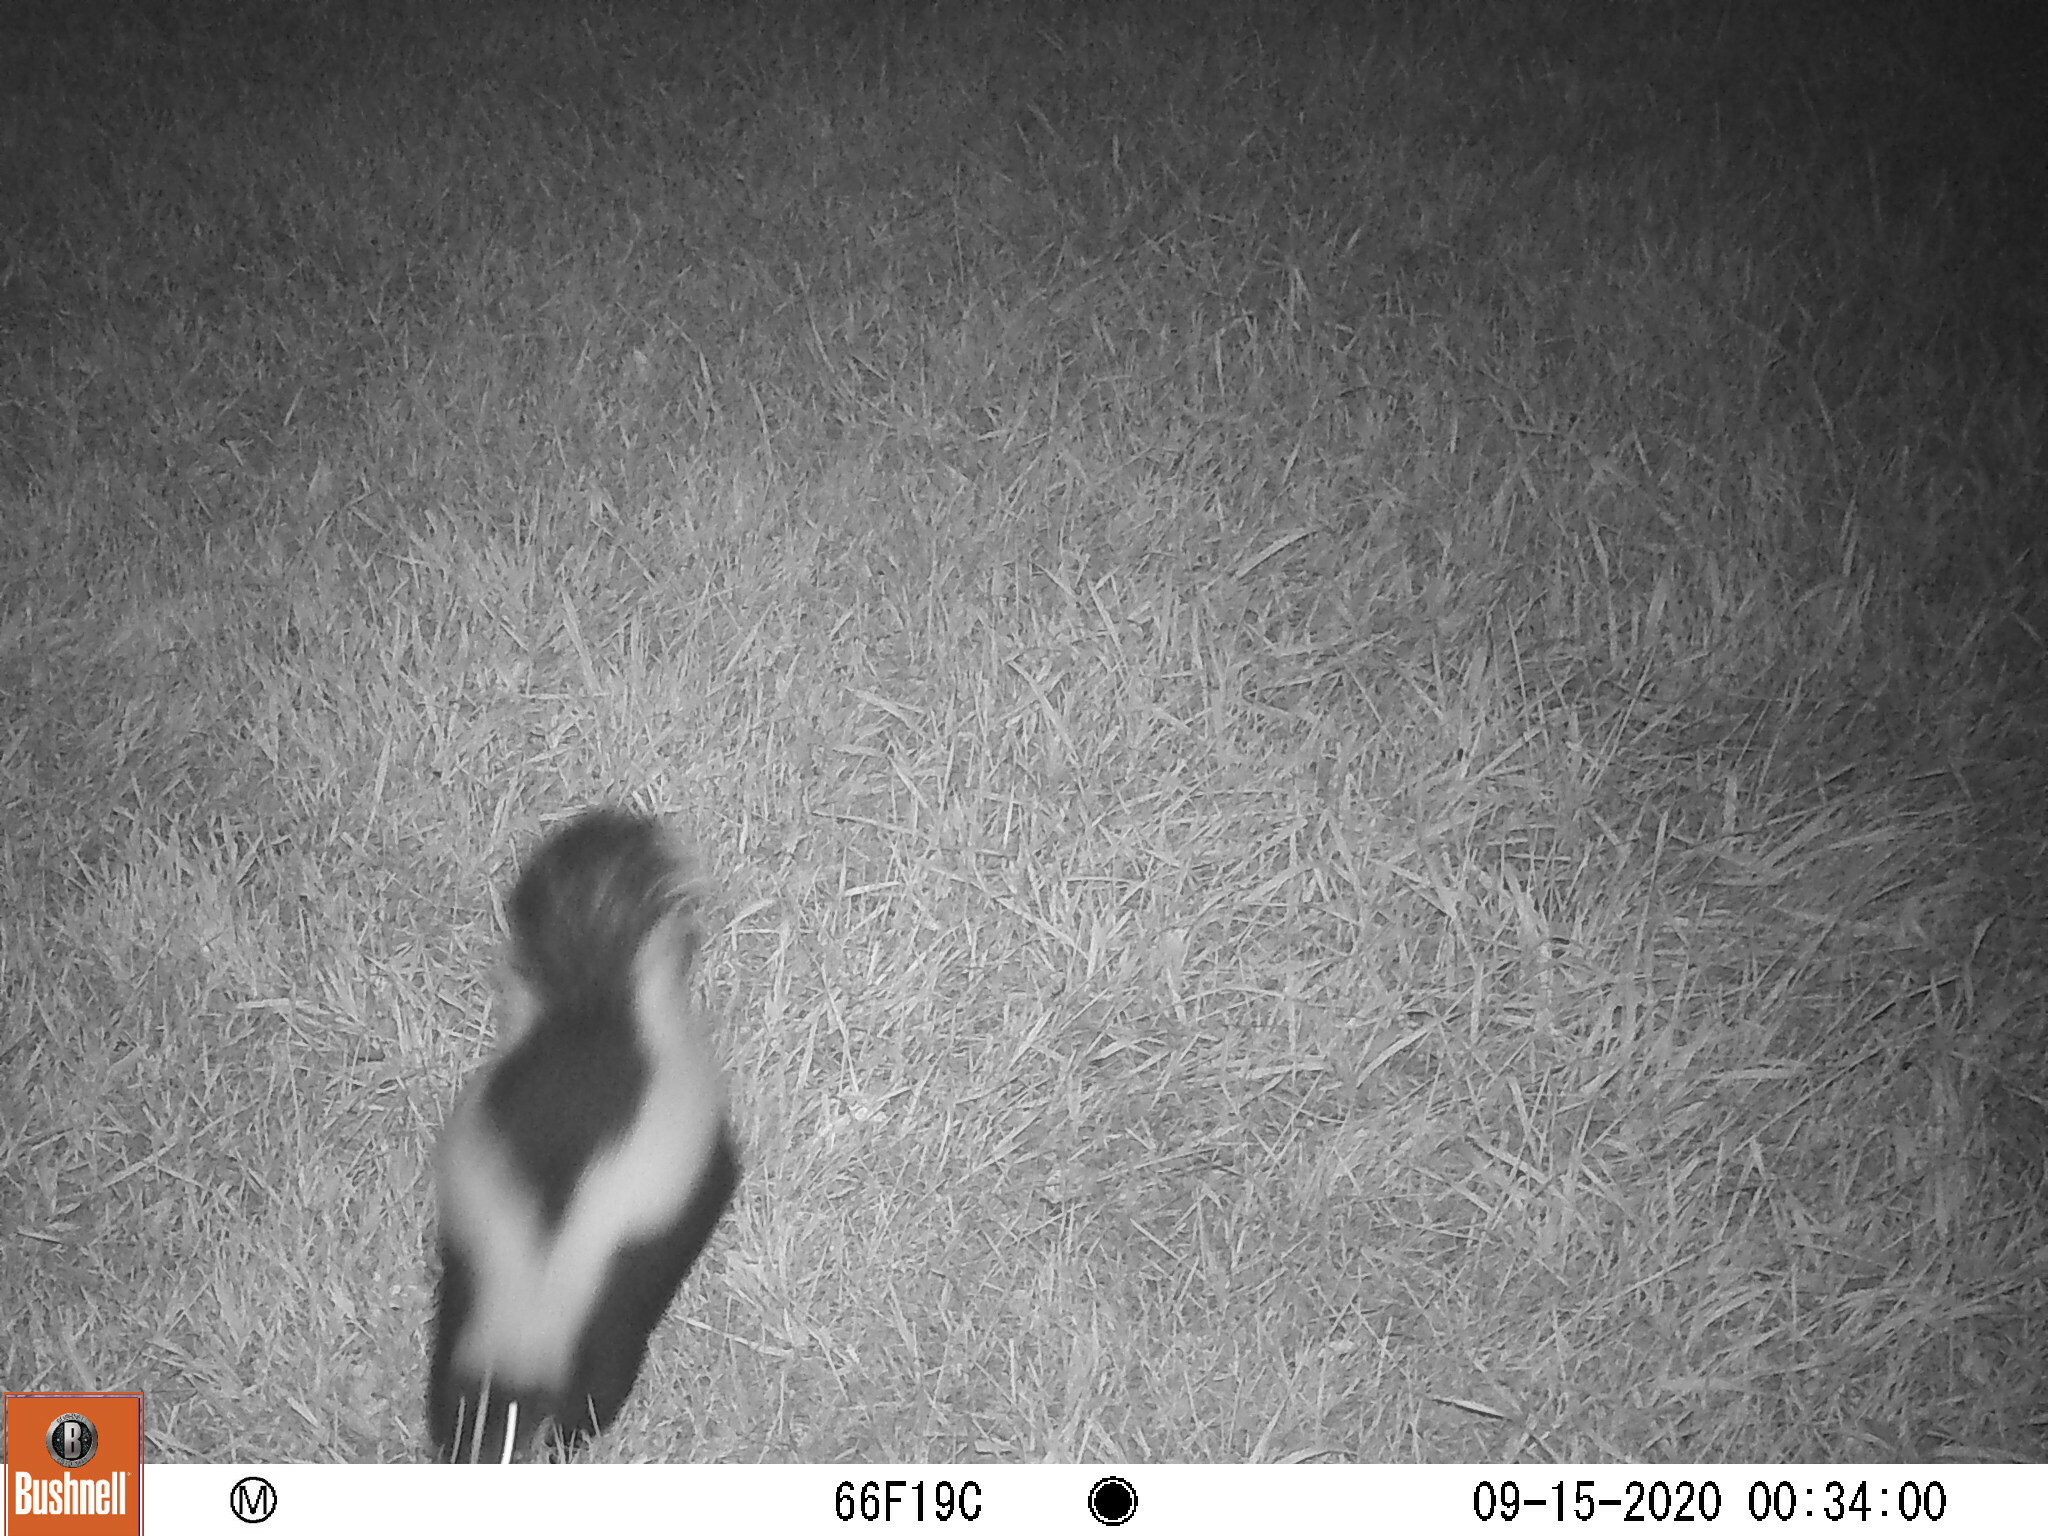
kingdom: Animalia
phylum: Chordata
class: Mammalia
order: Carnivora
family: Mephitidae
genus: Mephitis
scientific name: Mephitis mephitis
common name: Striped skunk
